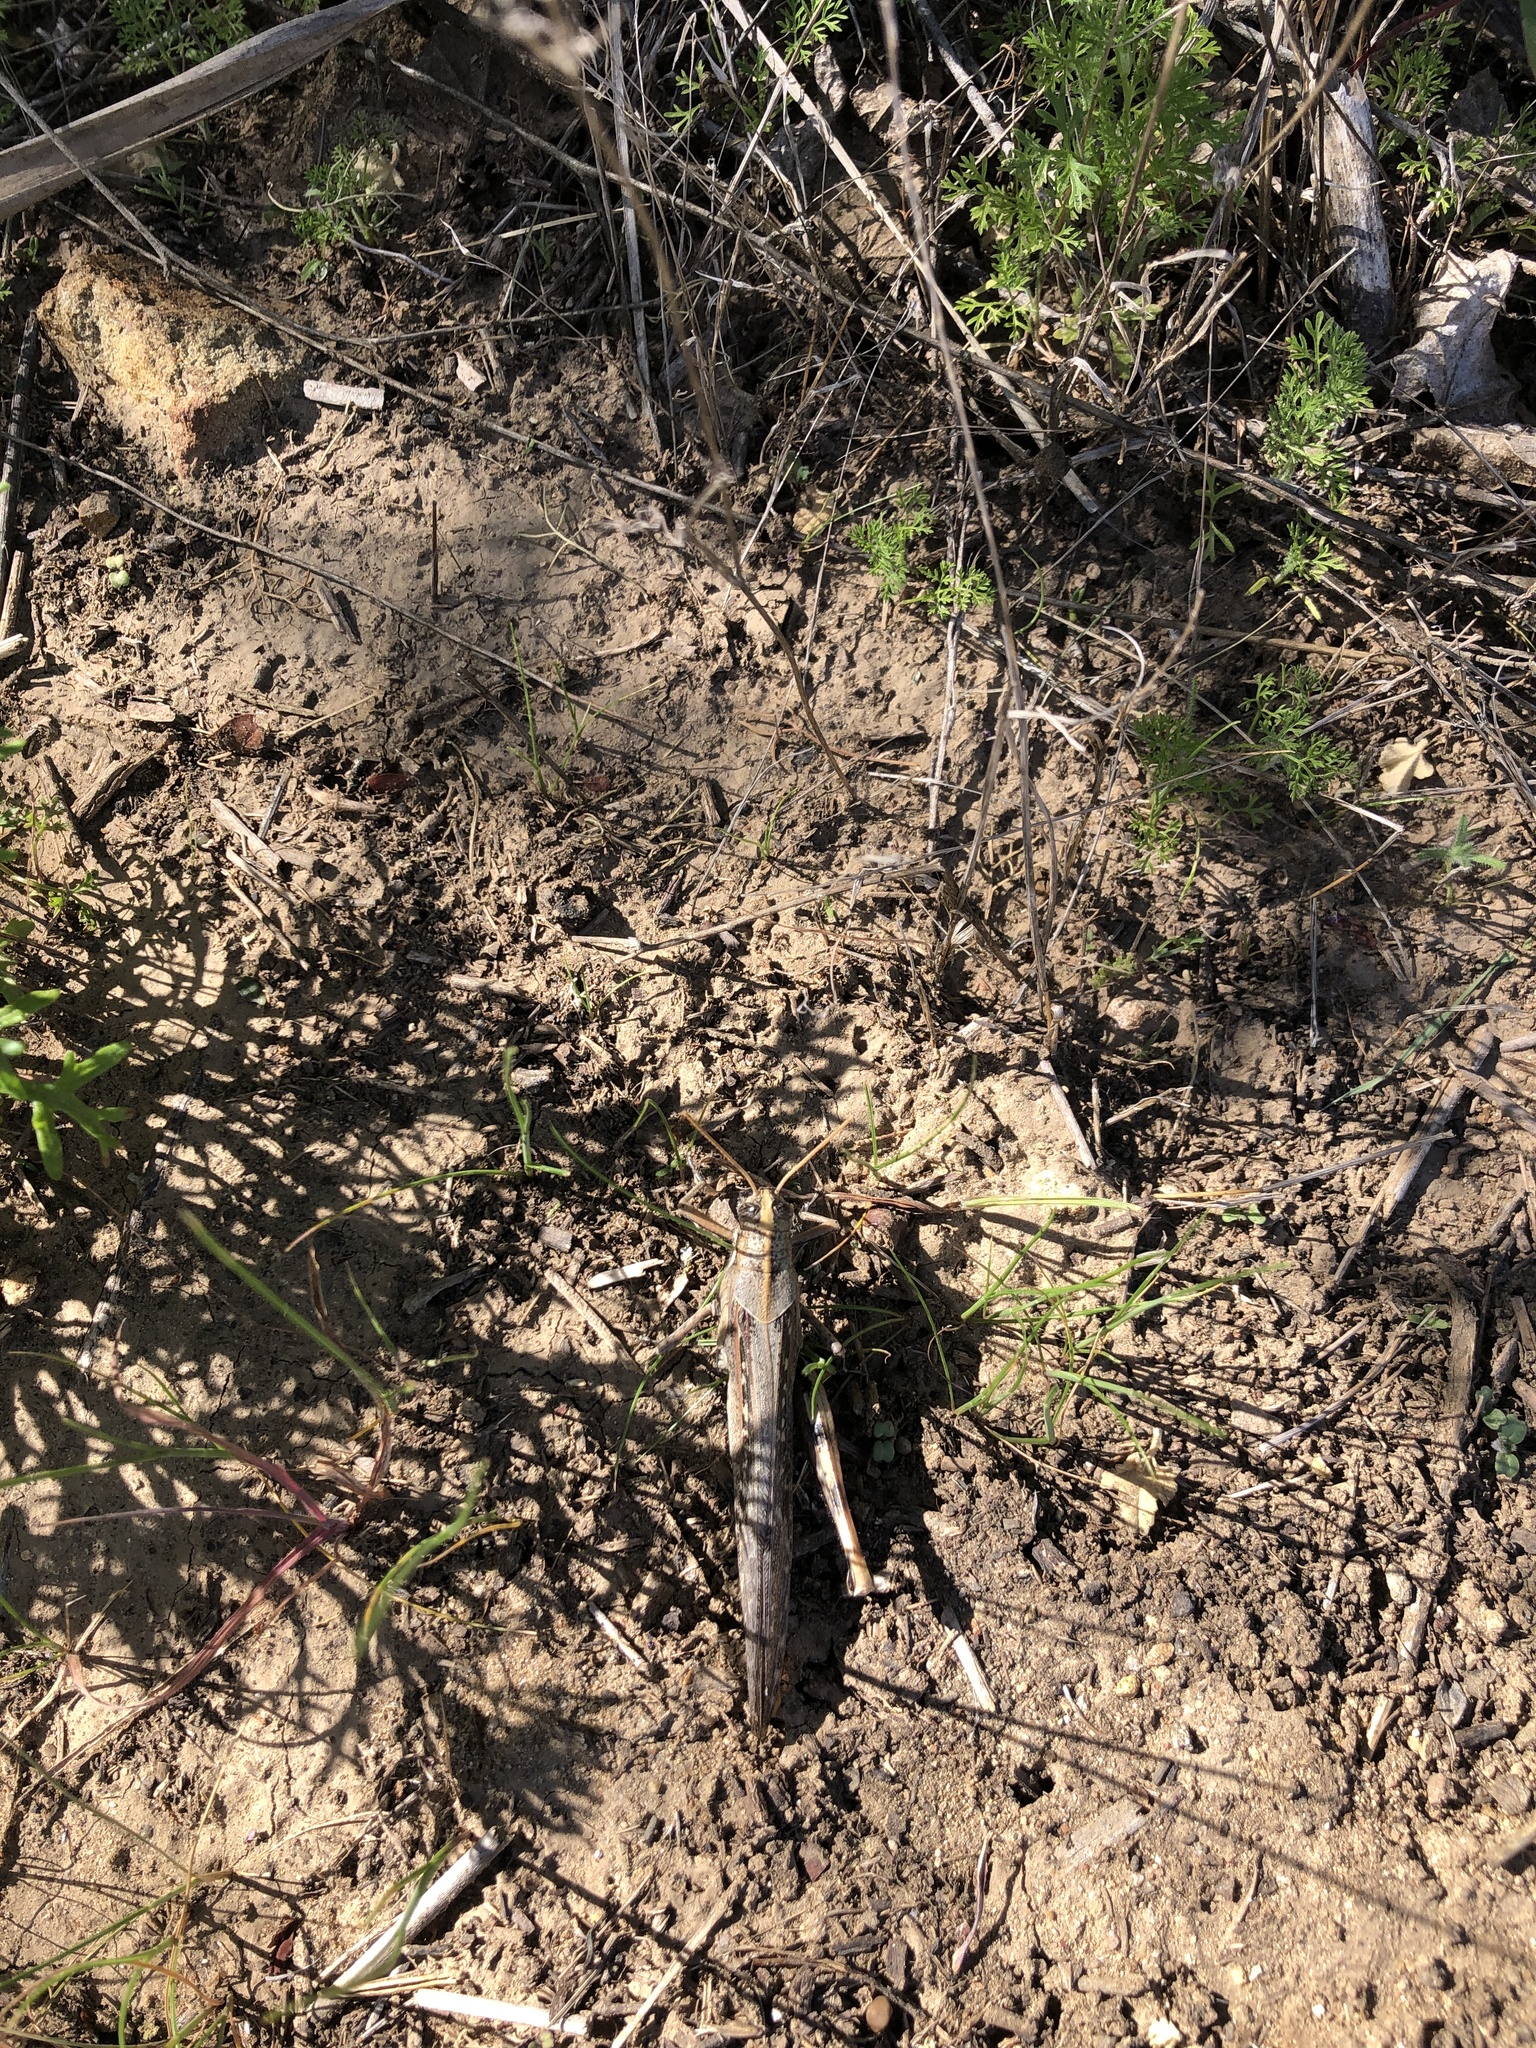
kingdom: Animalia
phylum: Arthropoda
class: Insecta
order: Orthoptera
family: Acrididae
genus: Schistocerca
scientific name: Schistocerca nitens
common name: Vagrant grasshopper
